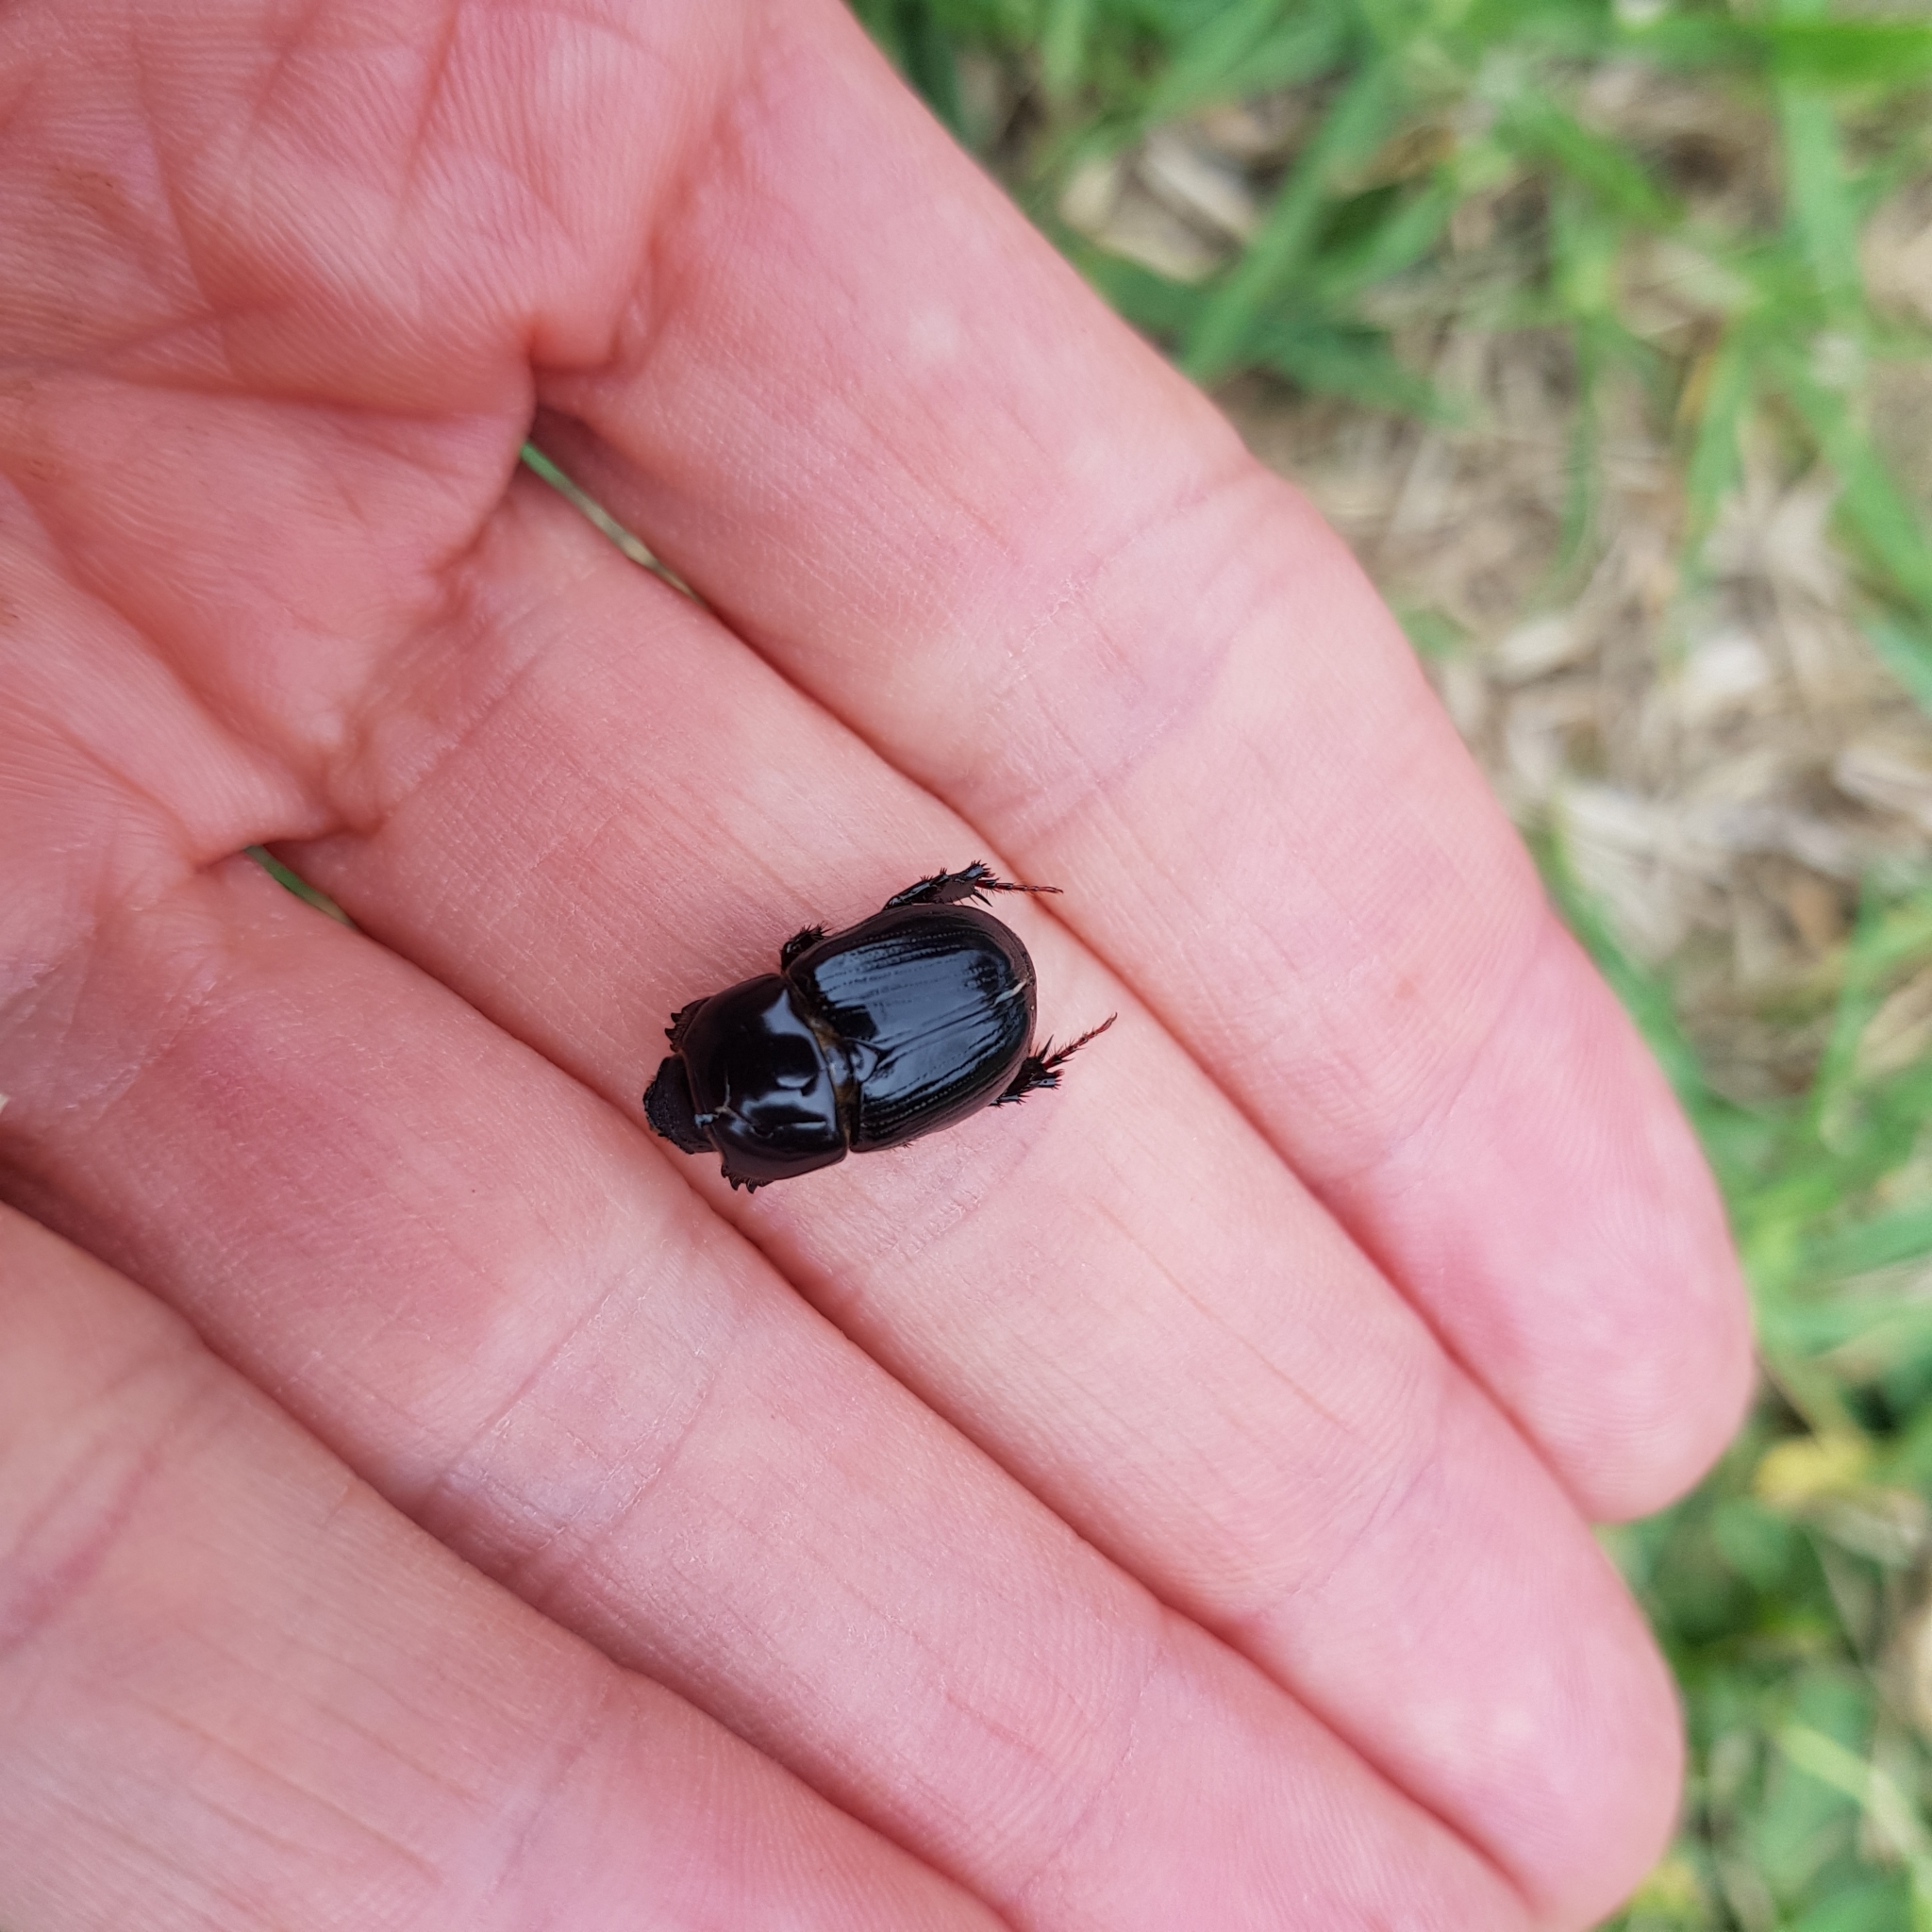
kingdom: Animalia
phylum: Arthropoda
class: Insecta
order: Coleoptera
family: Scarabaeidae
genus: Heteronychus
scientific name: Heteronychus arator
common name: African black beetle
